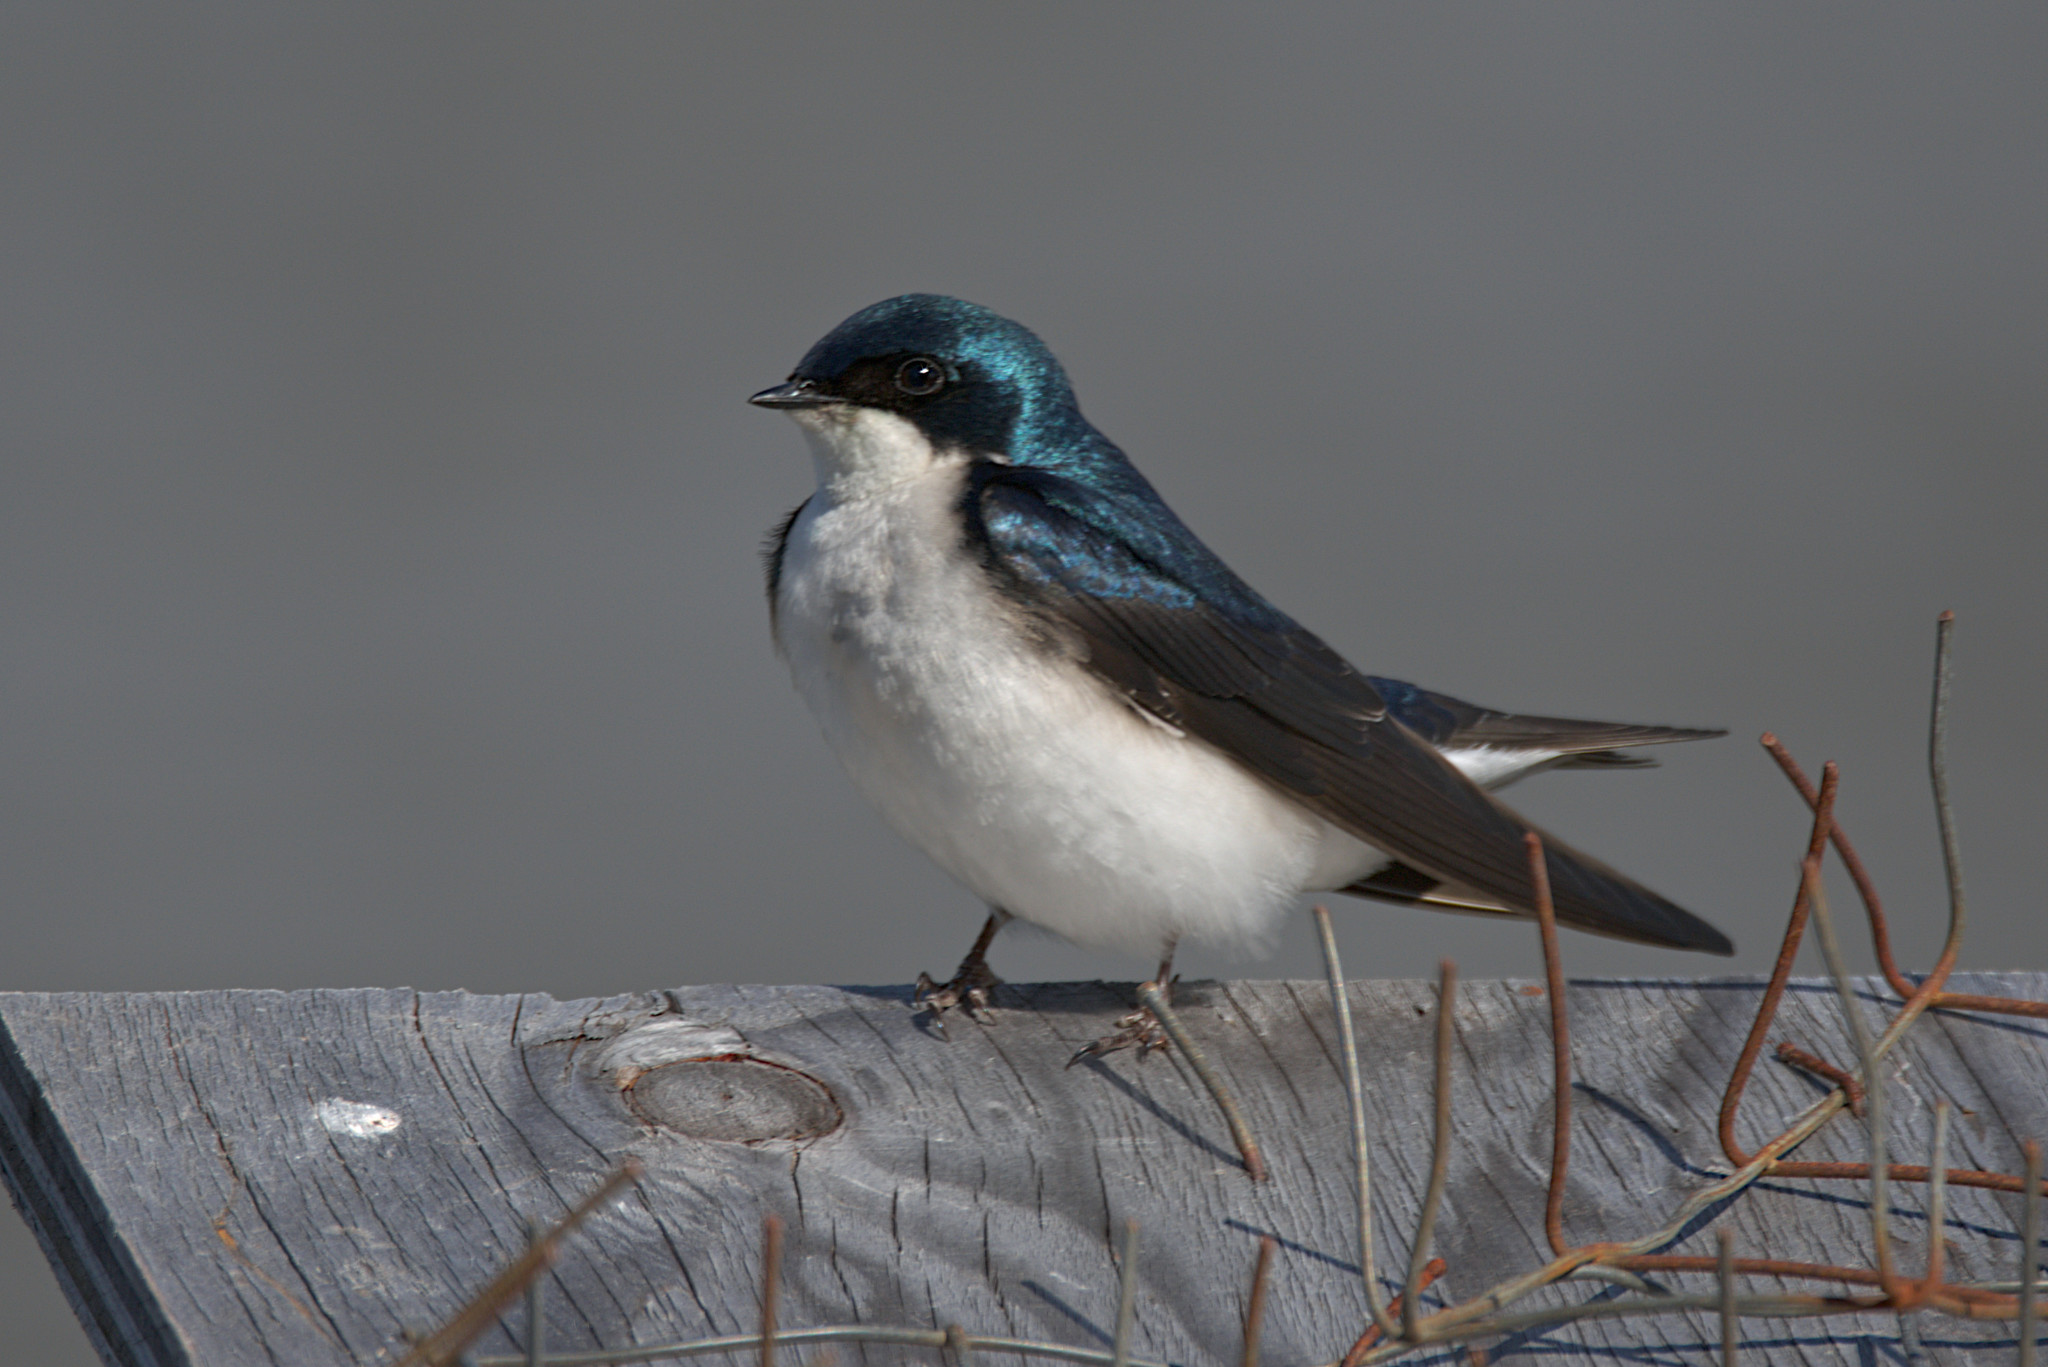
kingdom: Animalia
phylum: Chordata
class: Aves
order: Passeriformes
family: Hirundinidae
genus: Tachycineta
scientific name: Tachycineta bicolor
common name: Tree swallow
